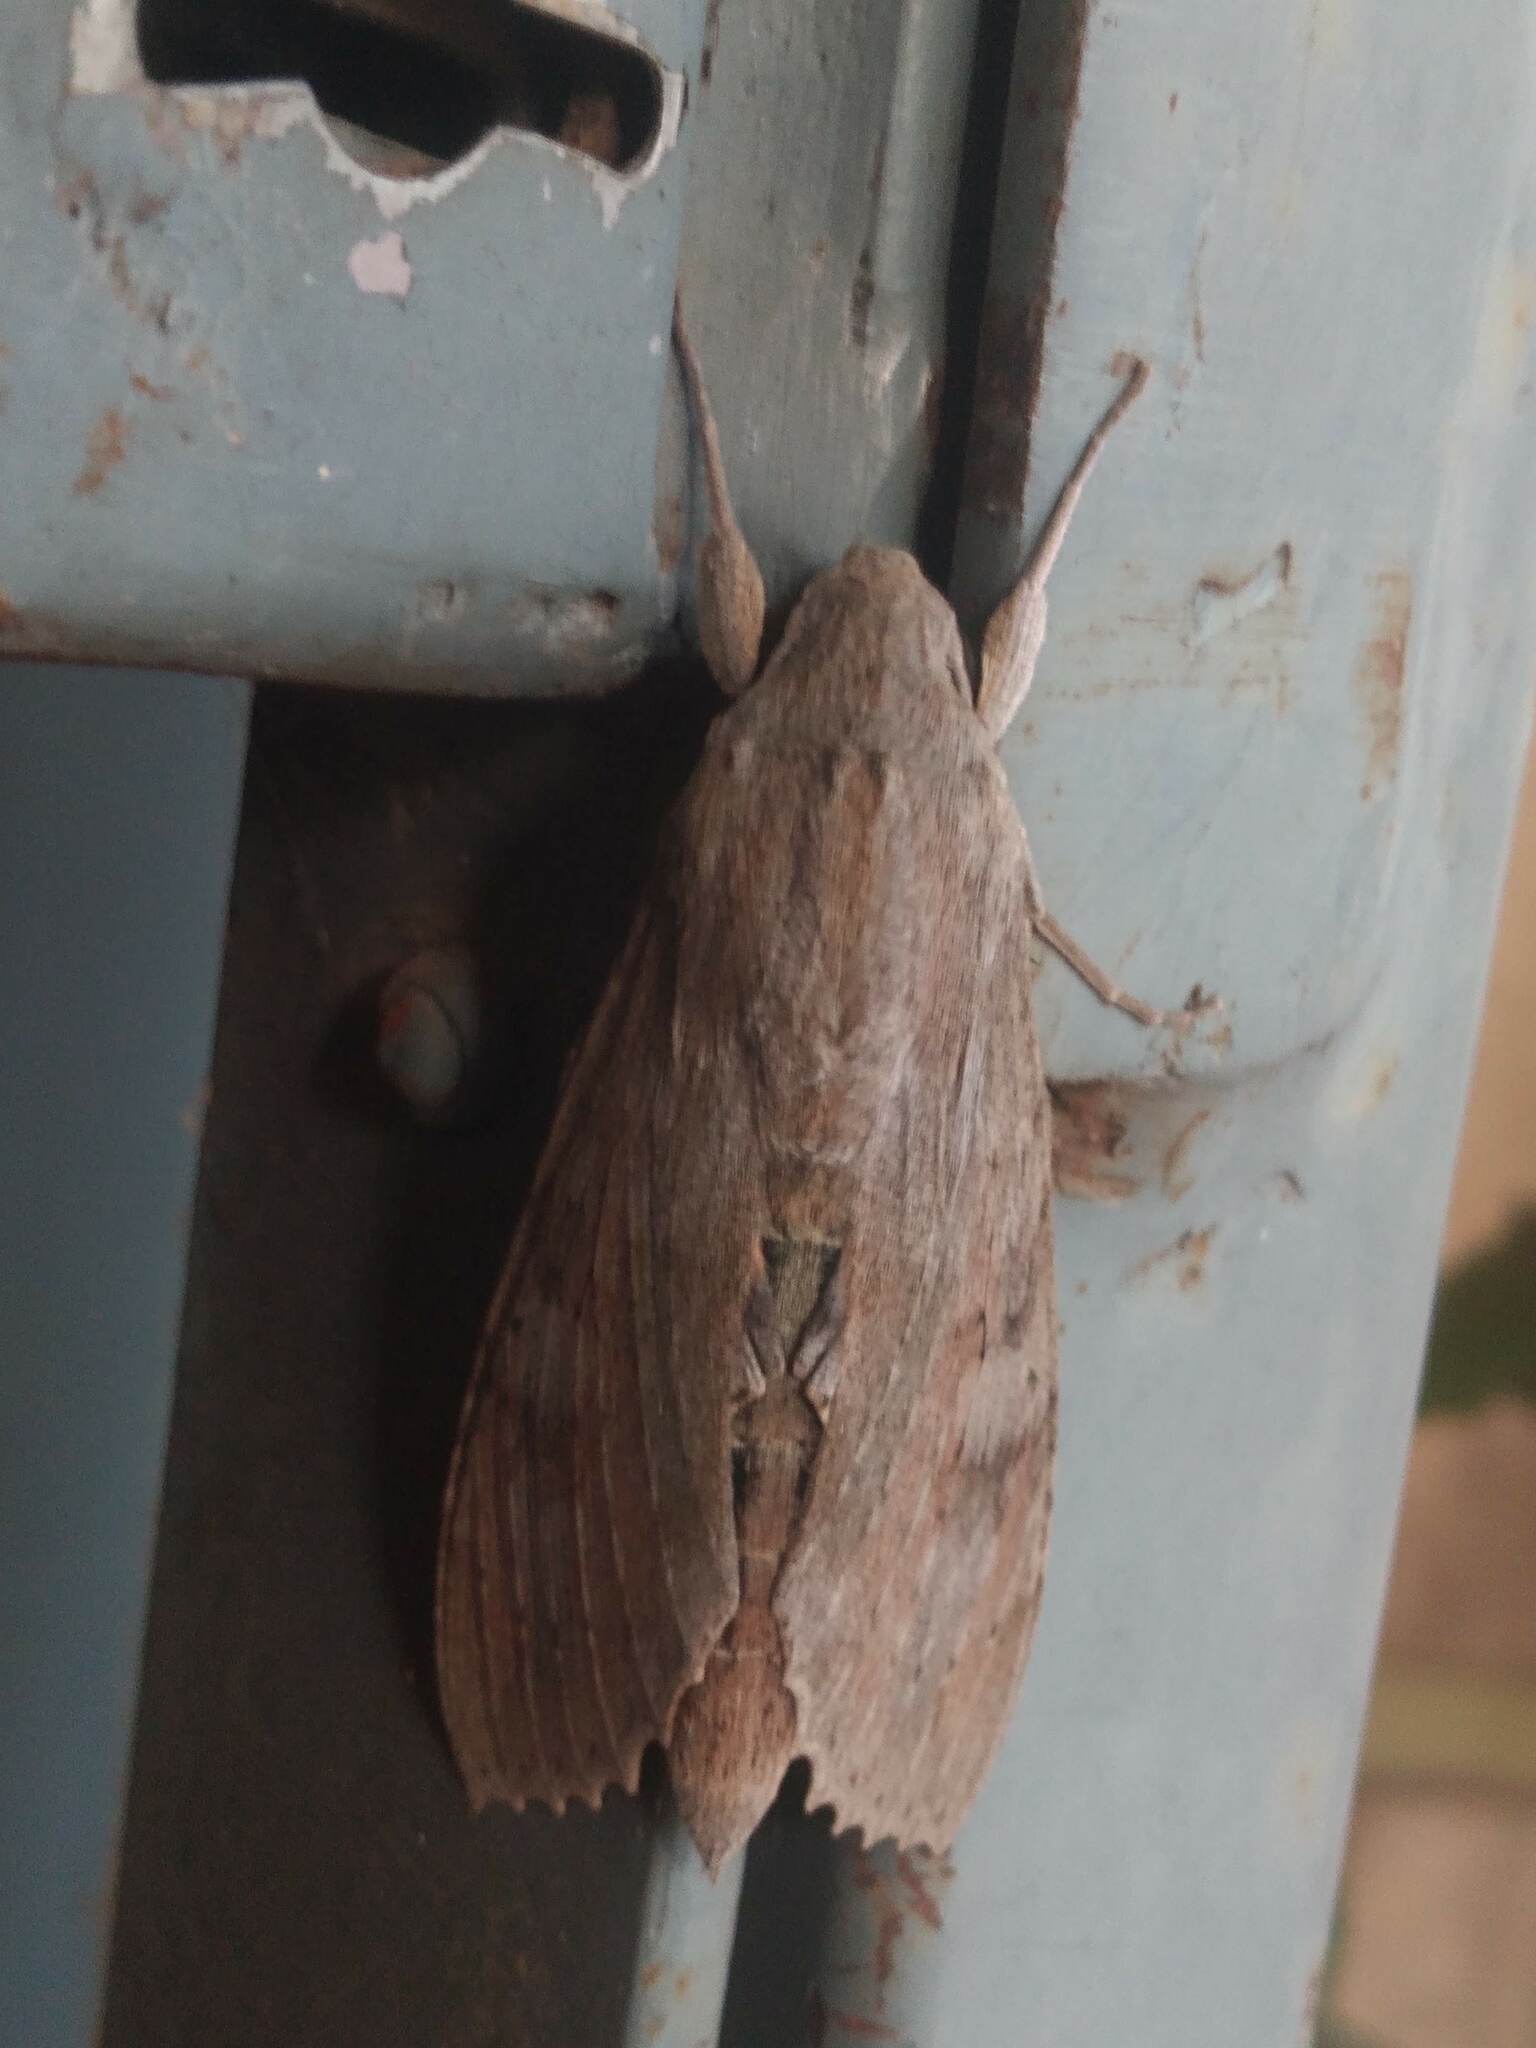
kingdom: Animalia
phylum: Arthropoda
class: Insecta
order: Lepidoptera
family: Sphingidae
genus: Erinnyis
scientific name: Erinnyis ello
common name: Ello sphinx
